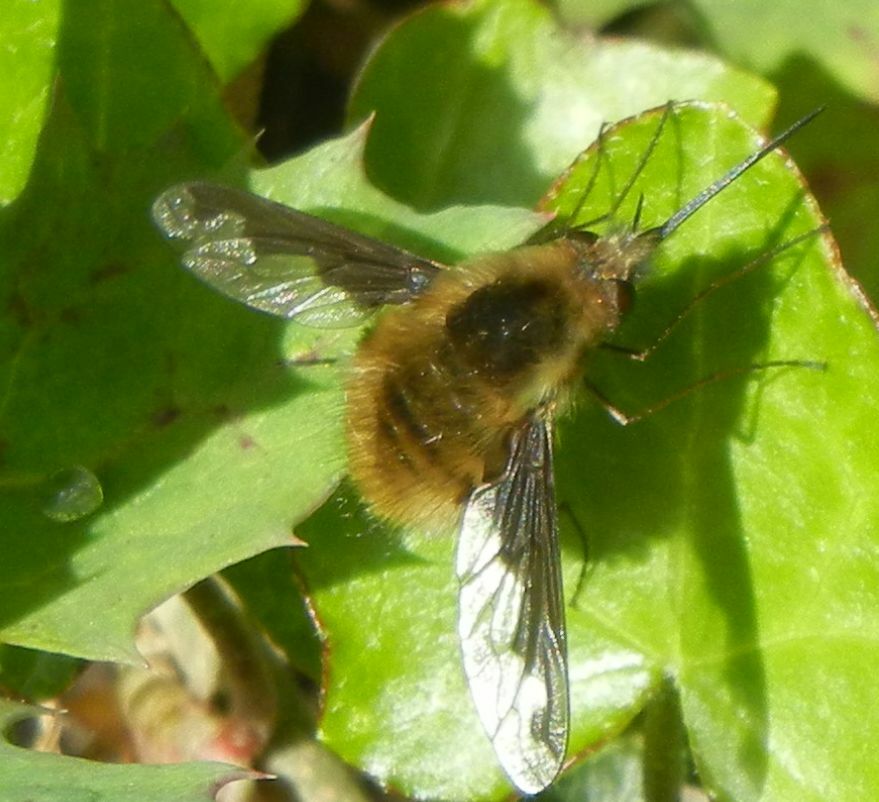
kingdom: Animalia
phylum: Arthropoda
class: Insecta
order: Diptera
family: Bombyliidae
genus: Bombylius
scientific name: Bombylius major
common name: Bee fly
